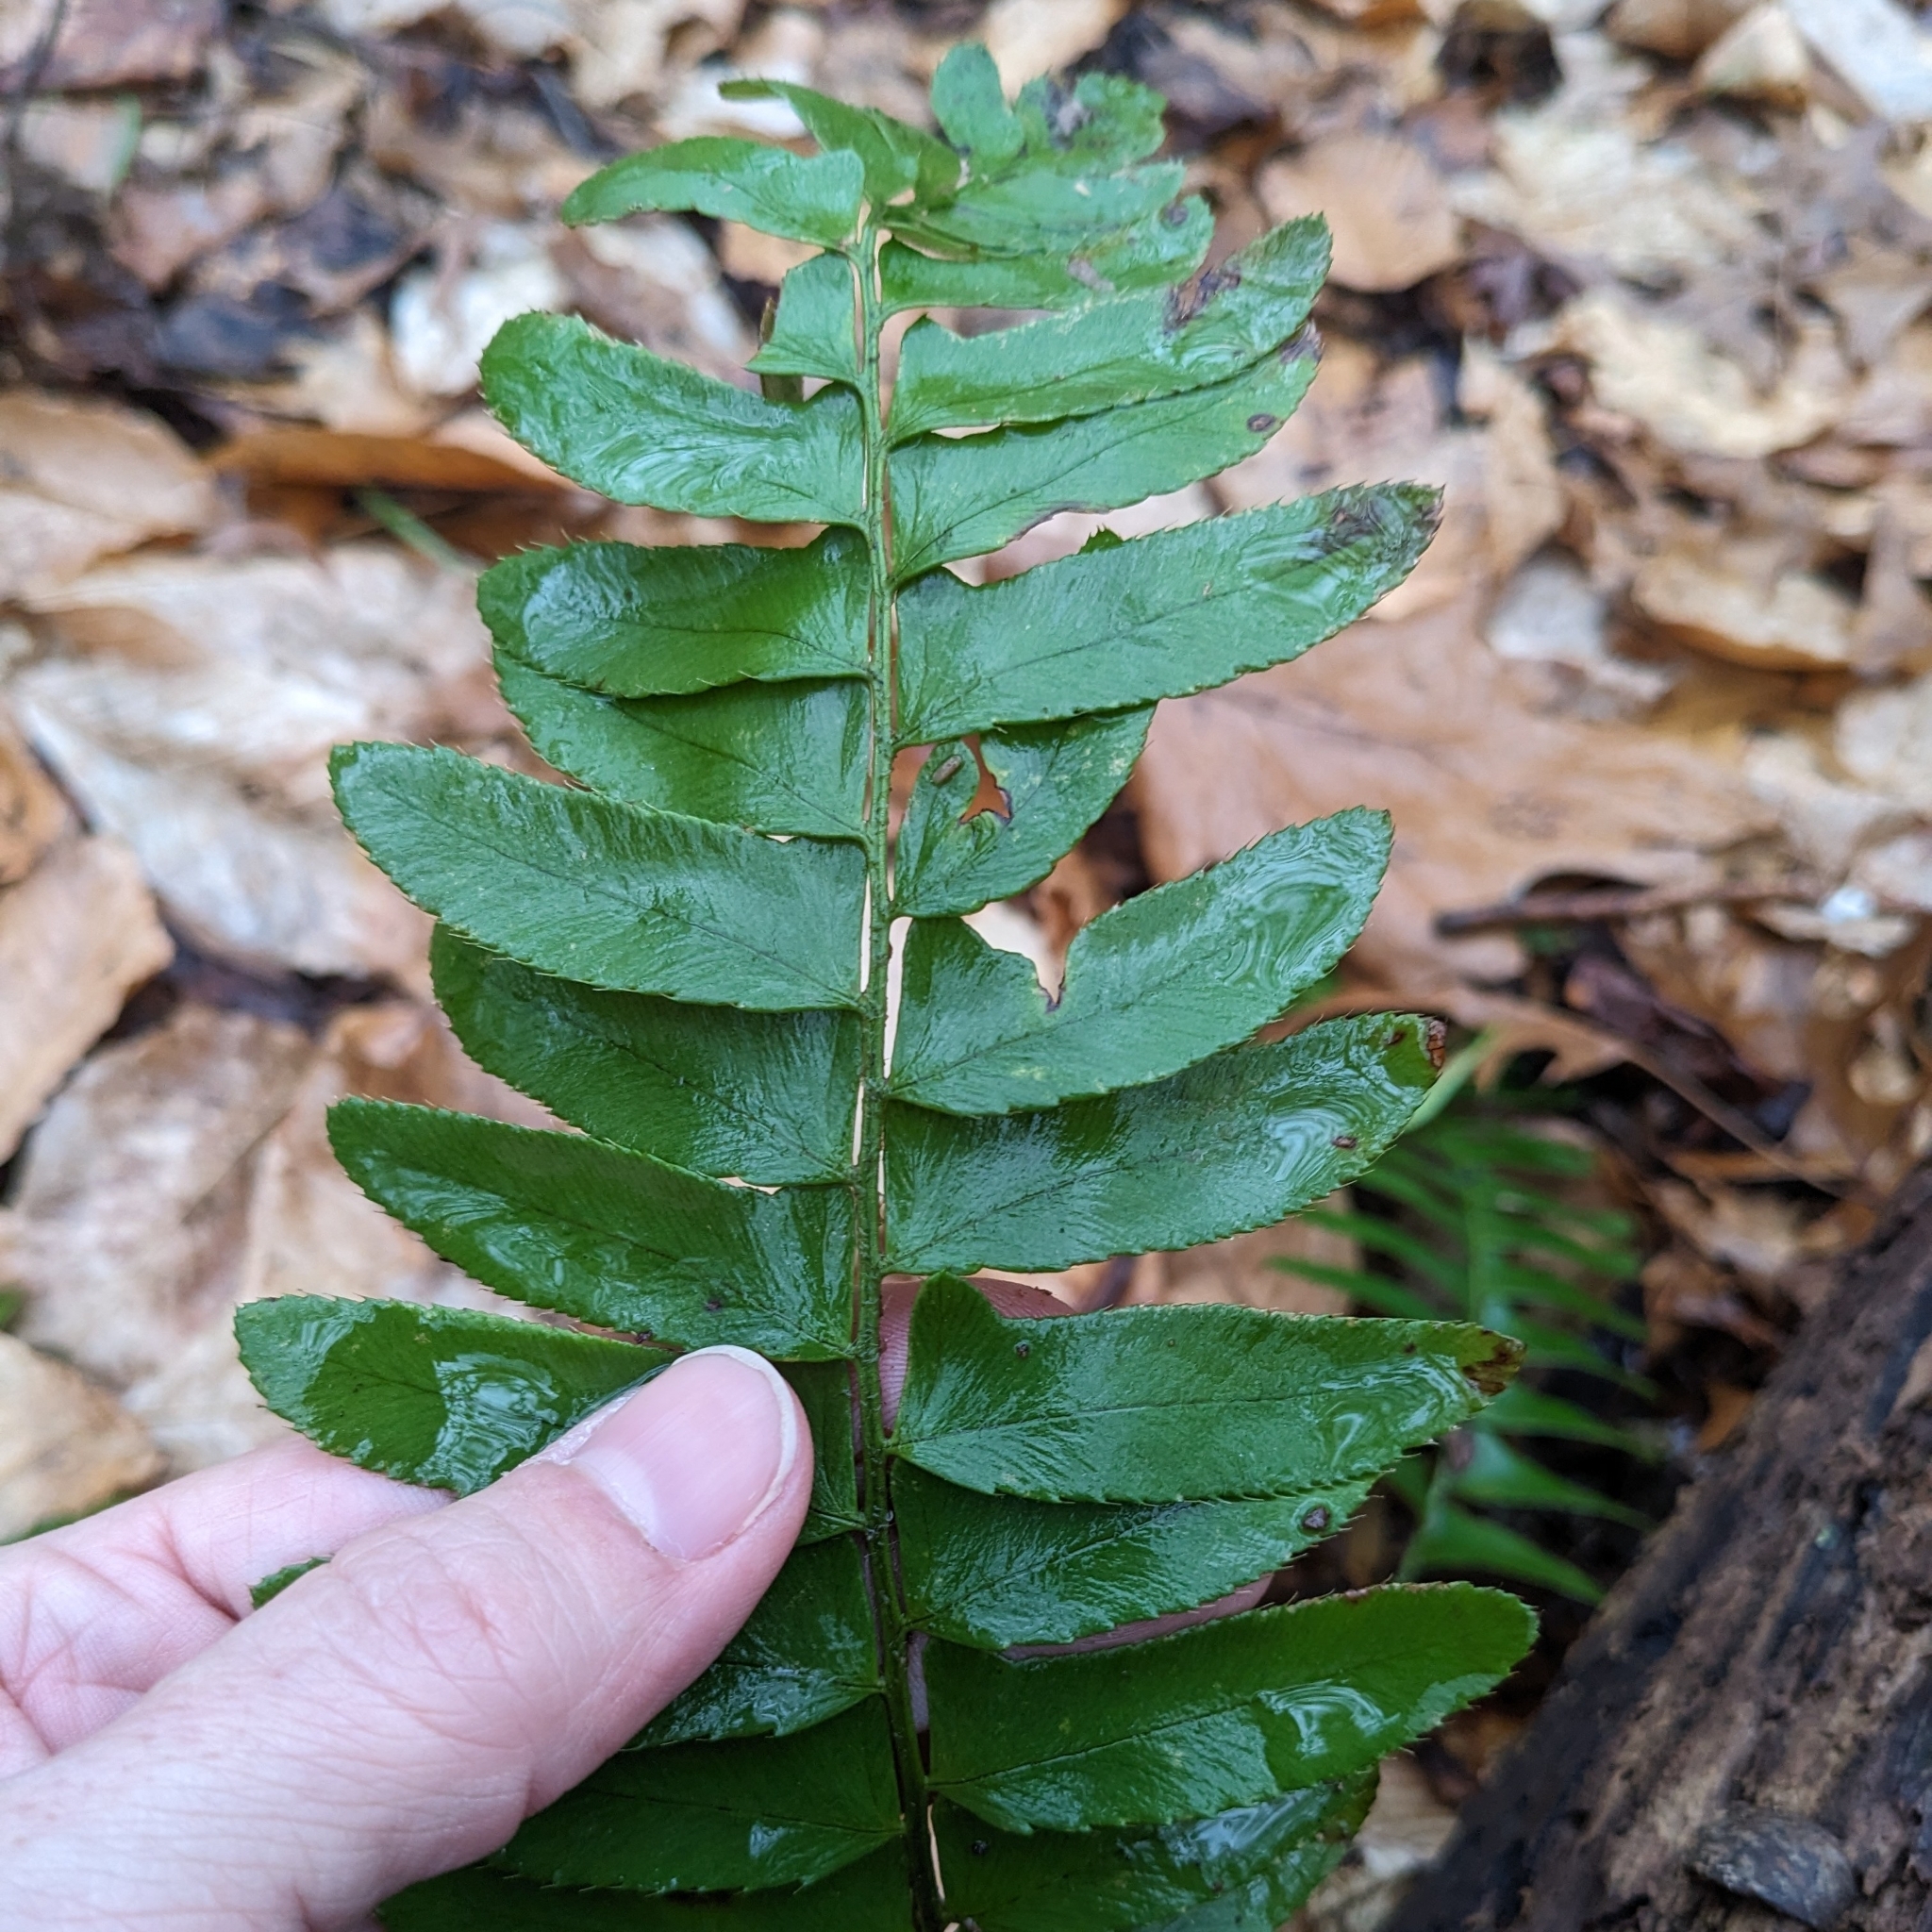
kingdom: Plantae
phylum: Tracheophyta
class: Polypodiopsida
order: Polypodiales
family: Dryopteridaceae
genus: Polystichum
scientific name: Polystichum acrostichoides
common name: Christmas fern
